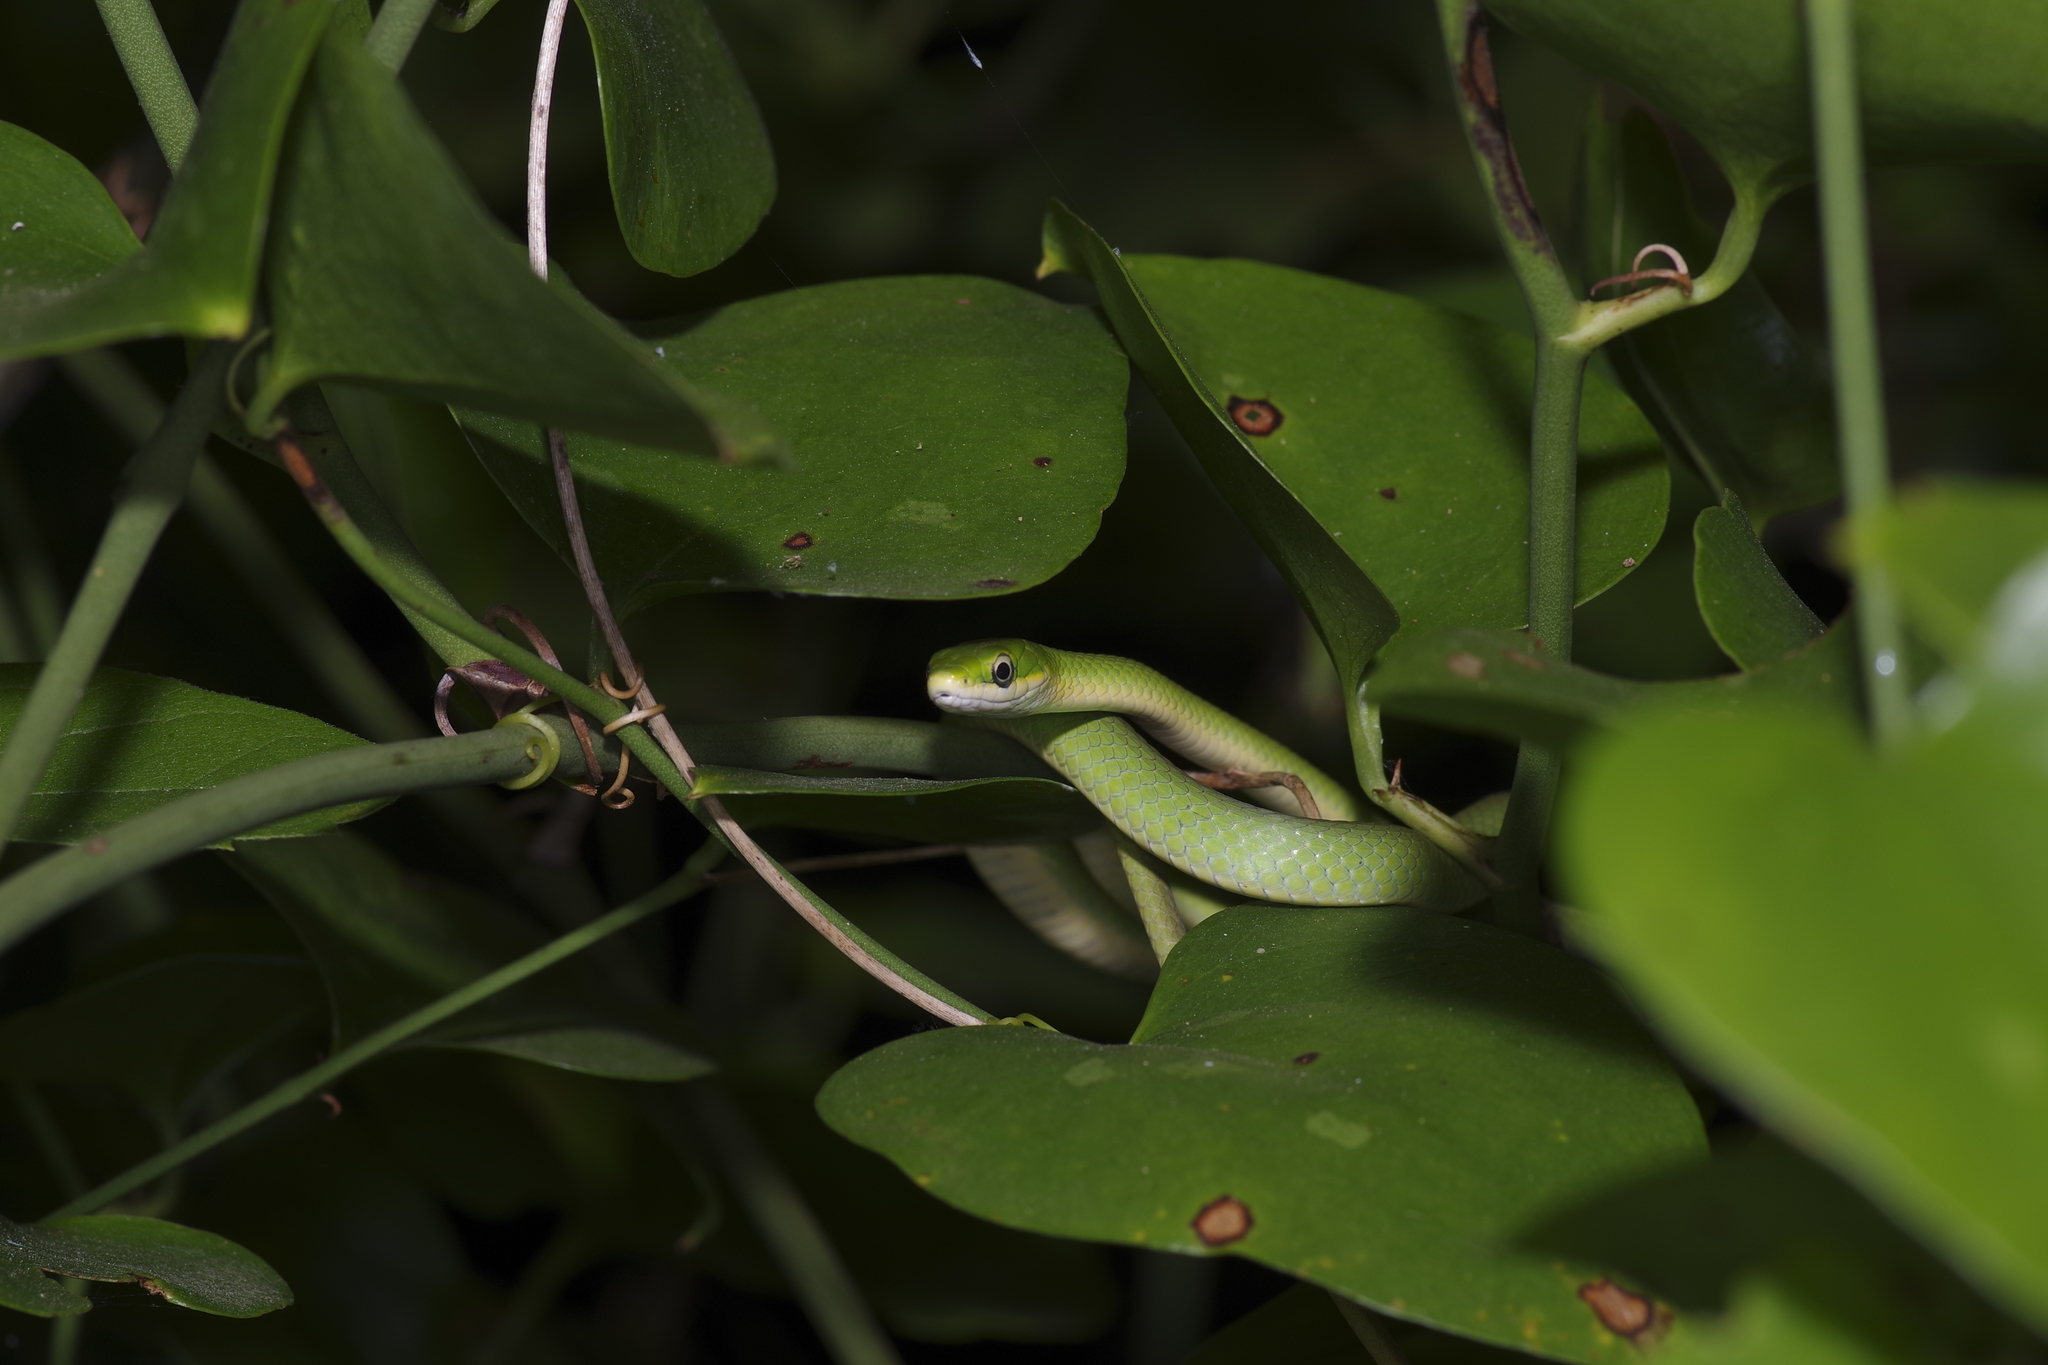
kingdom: Animalia
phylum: Chordata
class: Squamata
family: Colubridae
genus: Opheodrys
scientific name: Opheodrys aestivus
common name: Rough greensnake
